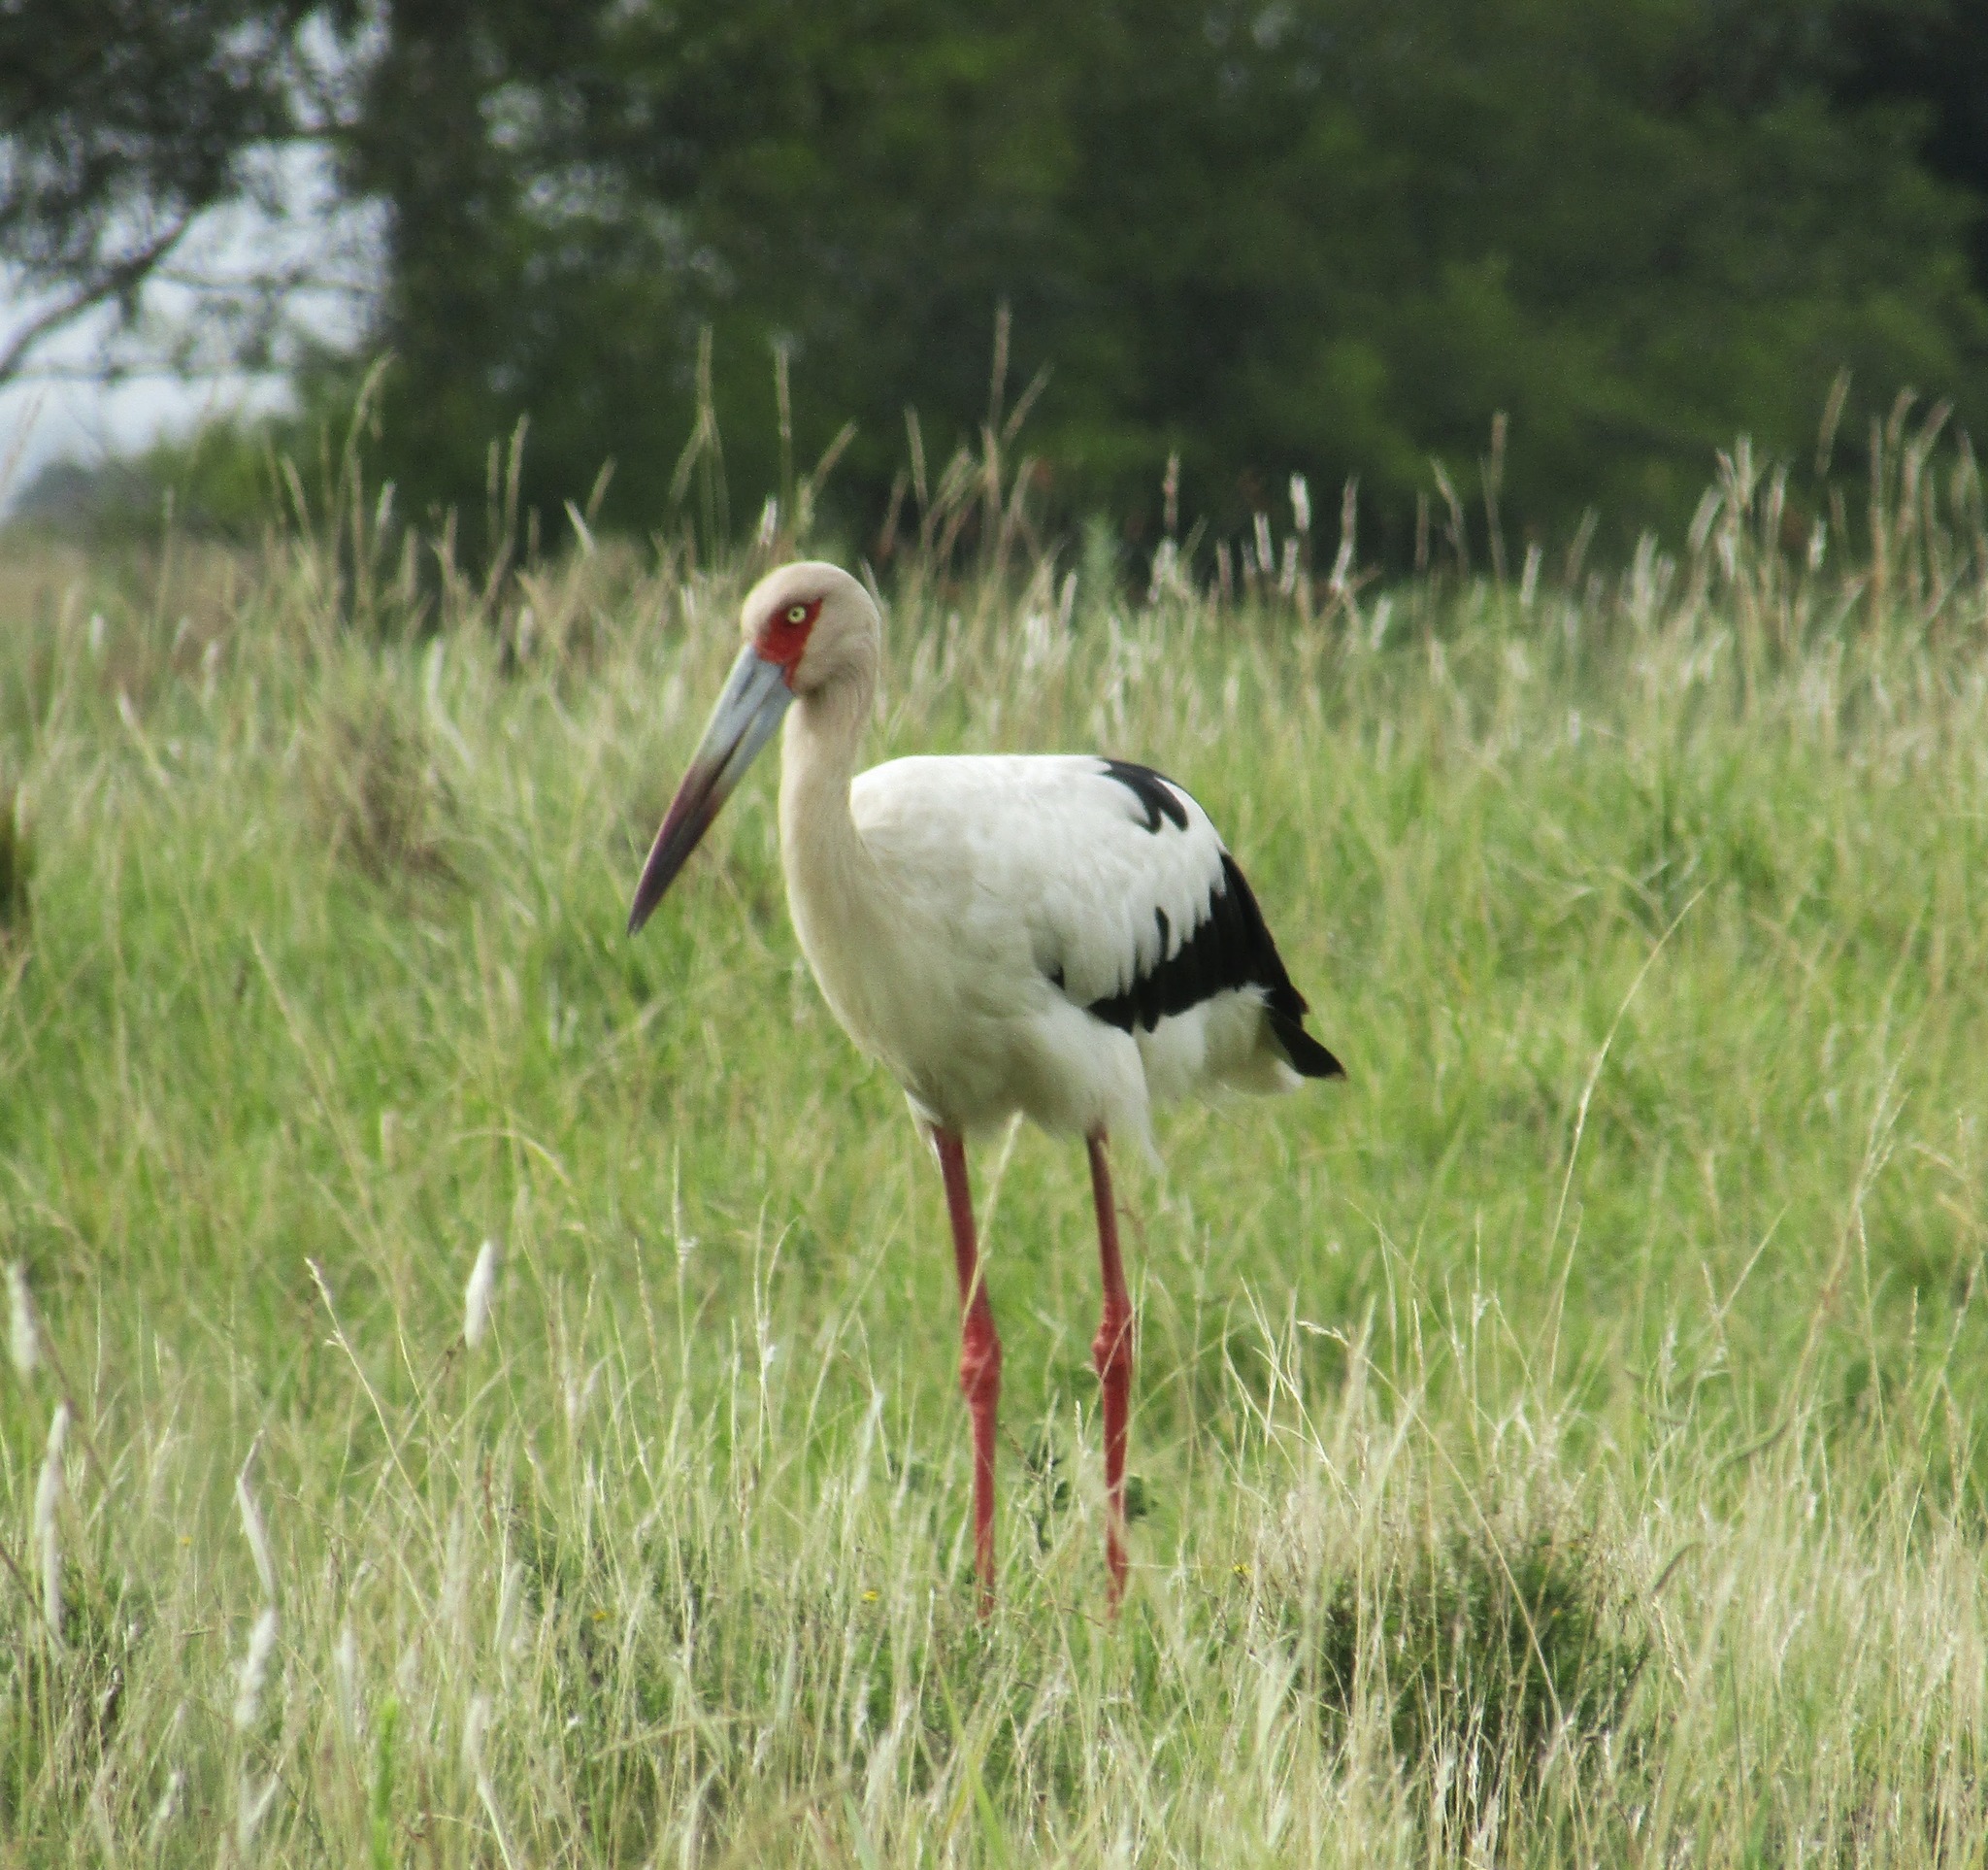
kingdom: Animalia
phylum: Chordata
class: Aves
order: Ciconiiformes
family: Ciconiidae
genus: Ciconia
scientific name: Ciconia maguari
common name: Maguari stork
